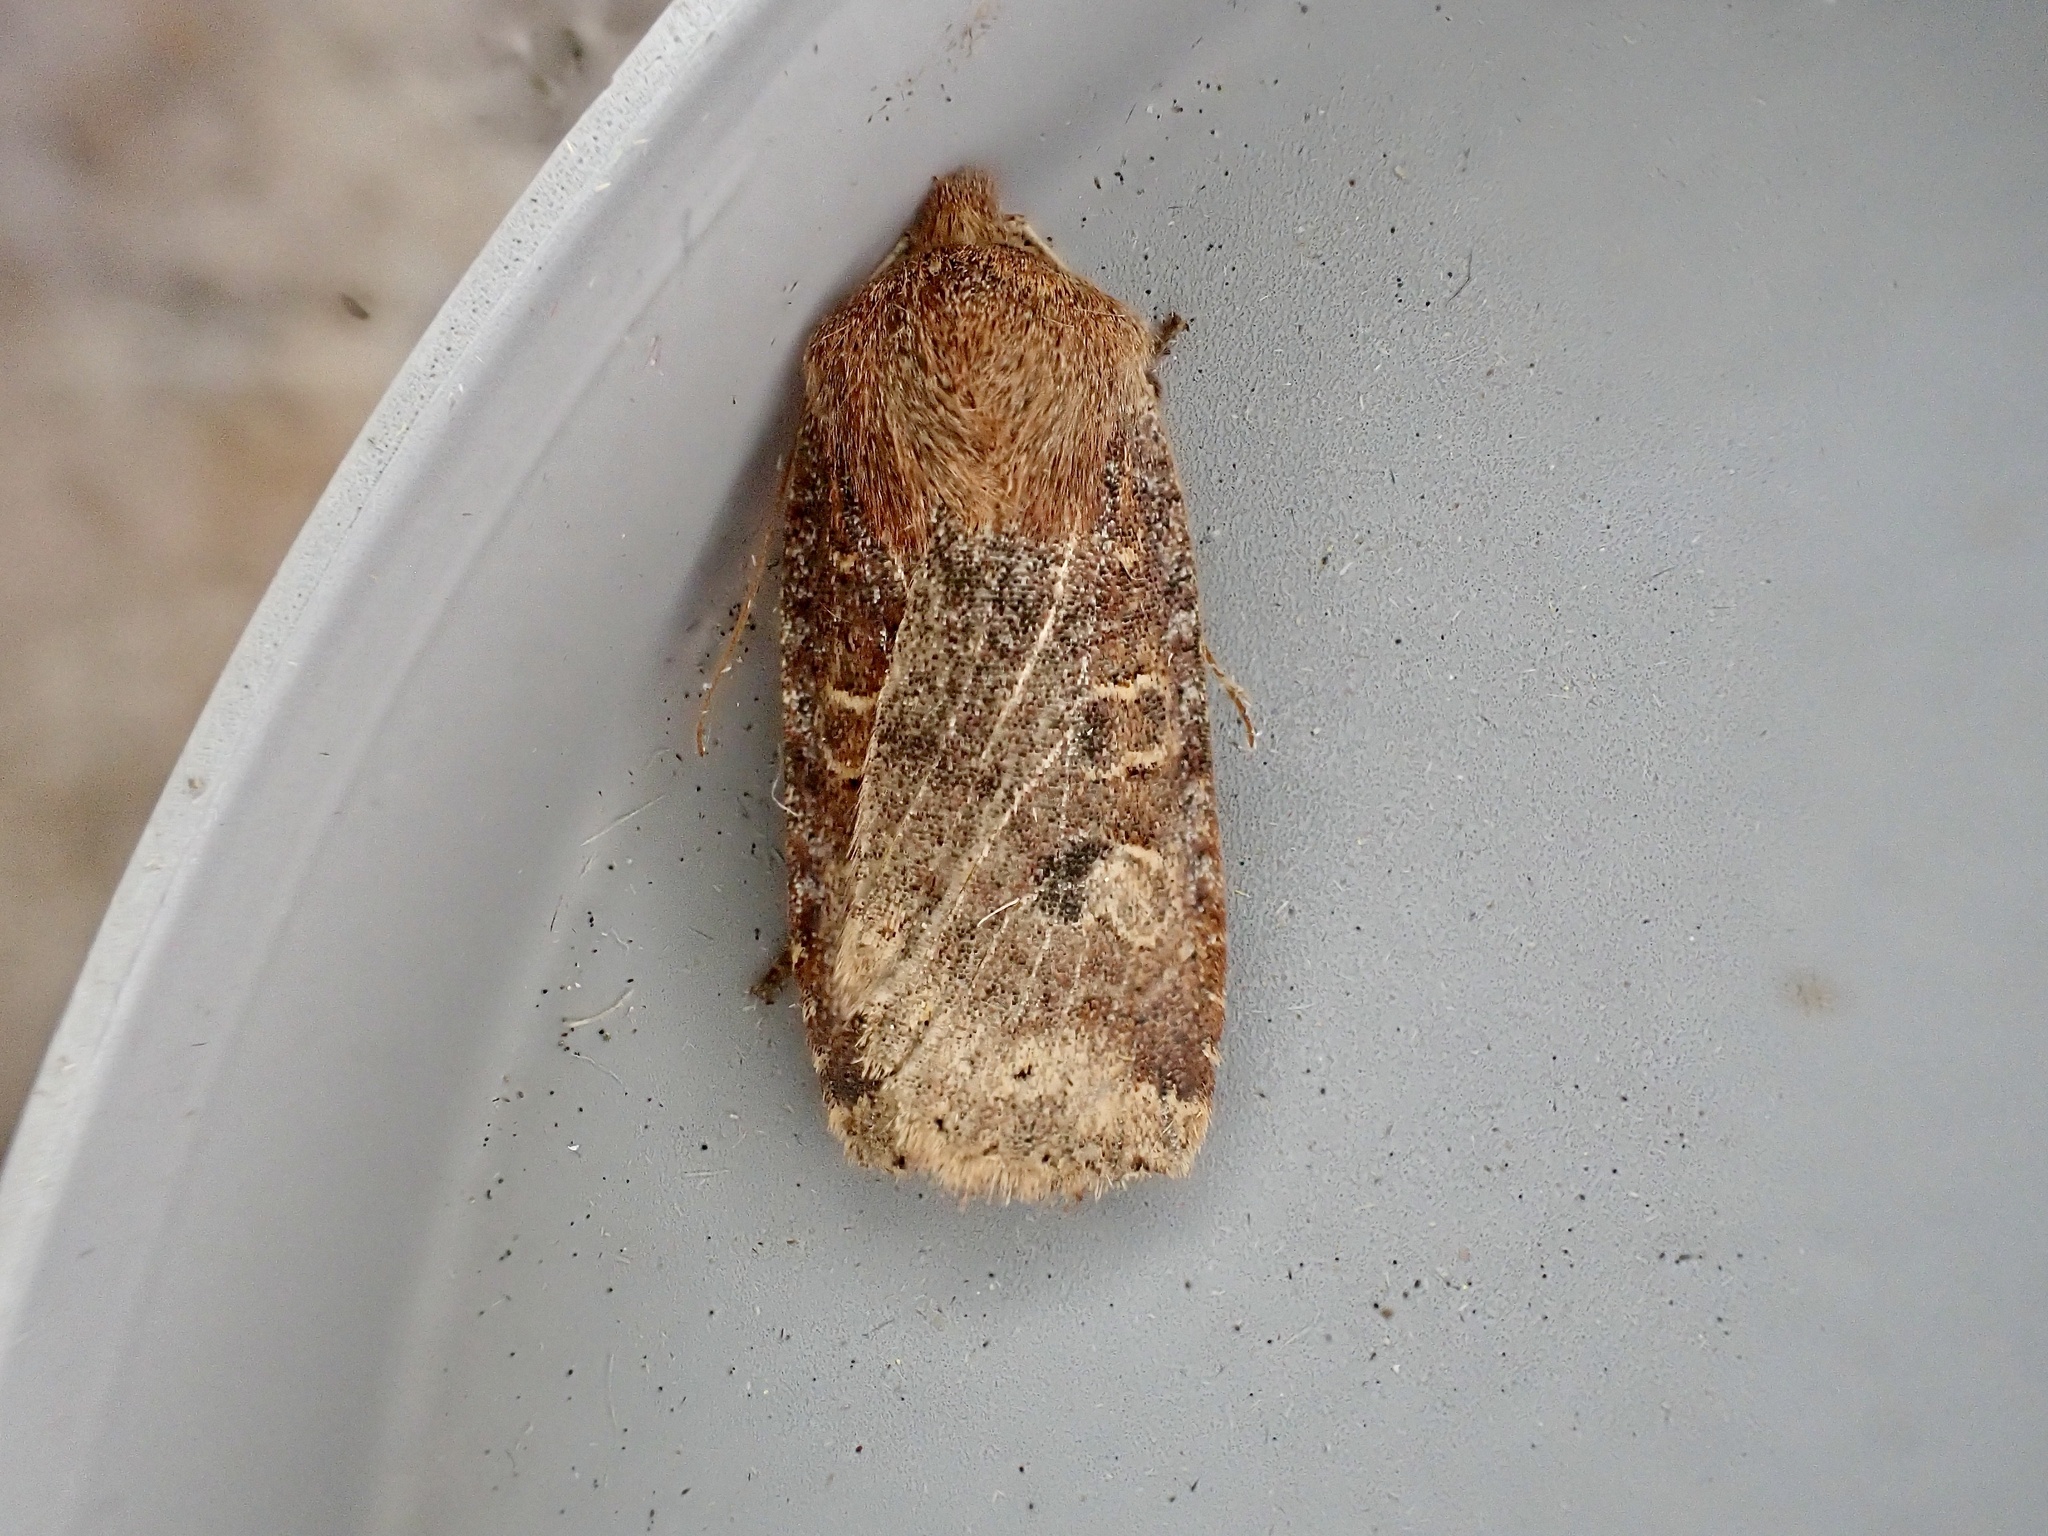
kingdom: Animalia
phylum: Arthropoda
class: Insecta
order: Lepidoptera
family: Noctuidae
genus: Conistra
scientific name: Conistra vaccinii
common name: Chestnut
